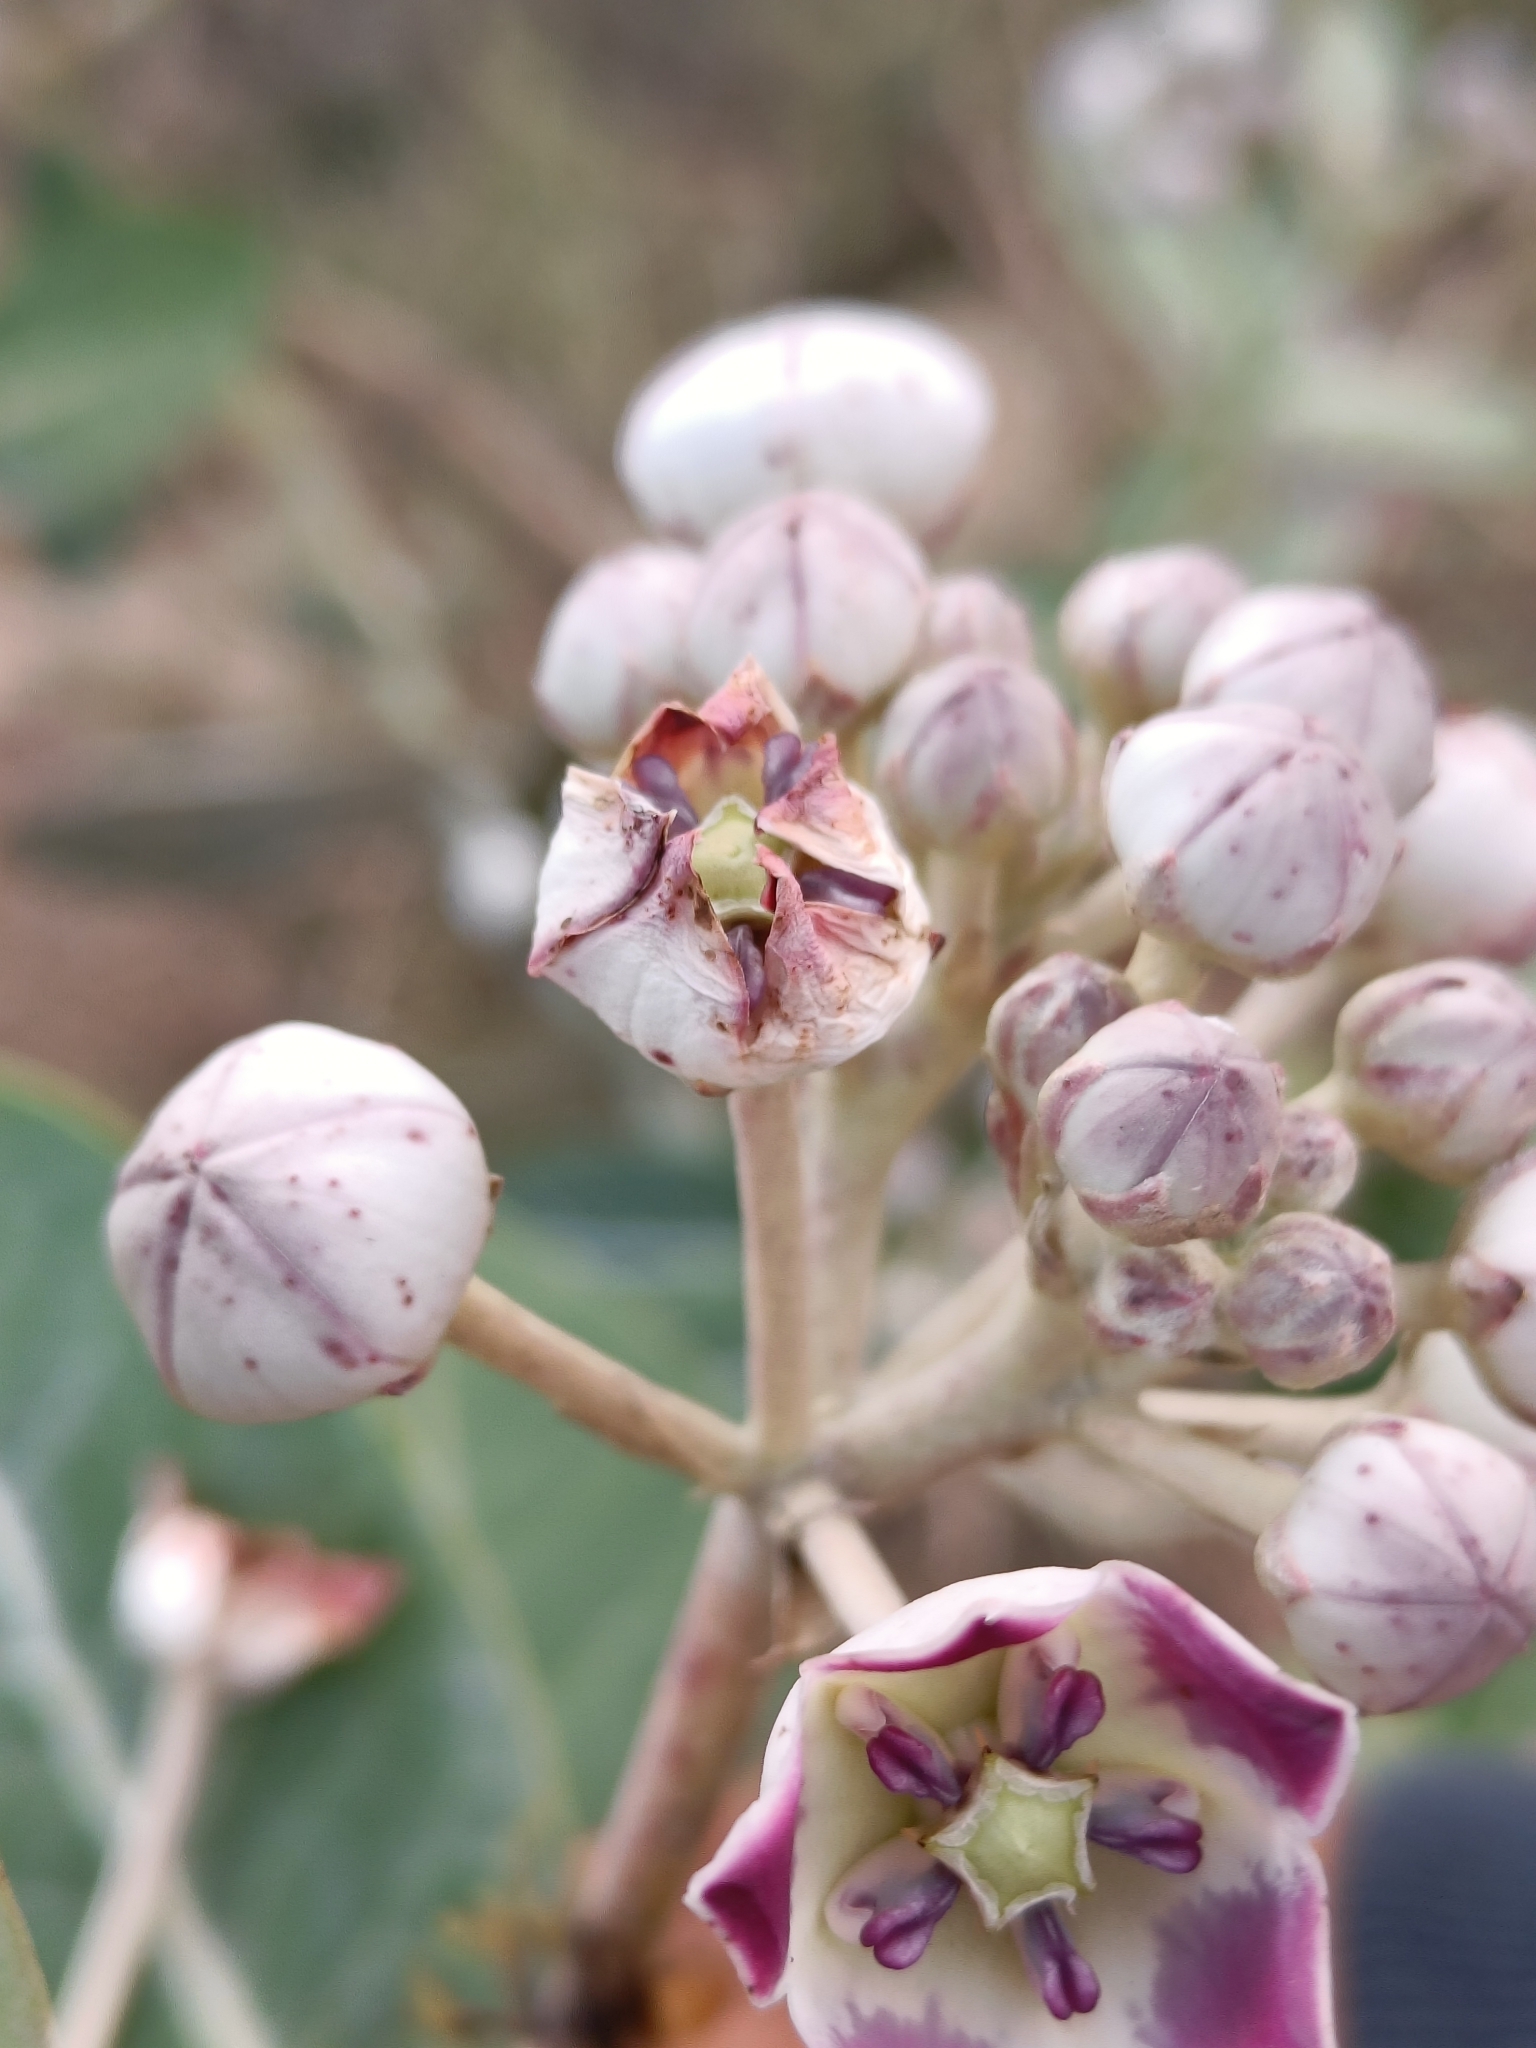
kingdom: Plantae
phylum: Tracheophyta
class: Magnoliopsida
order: Gentianales
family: Apocynaceae
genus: Calotropis
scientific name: Calotropis procera
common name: Roostertree
